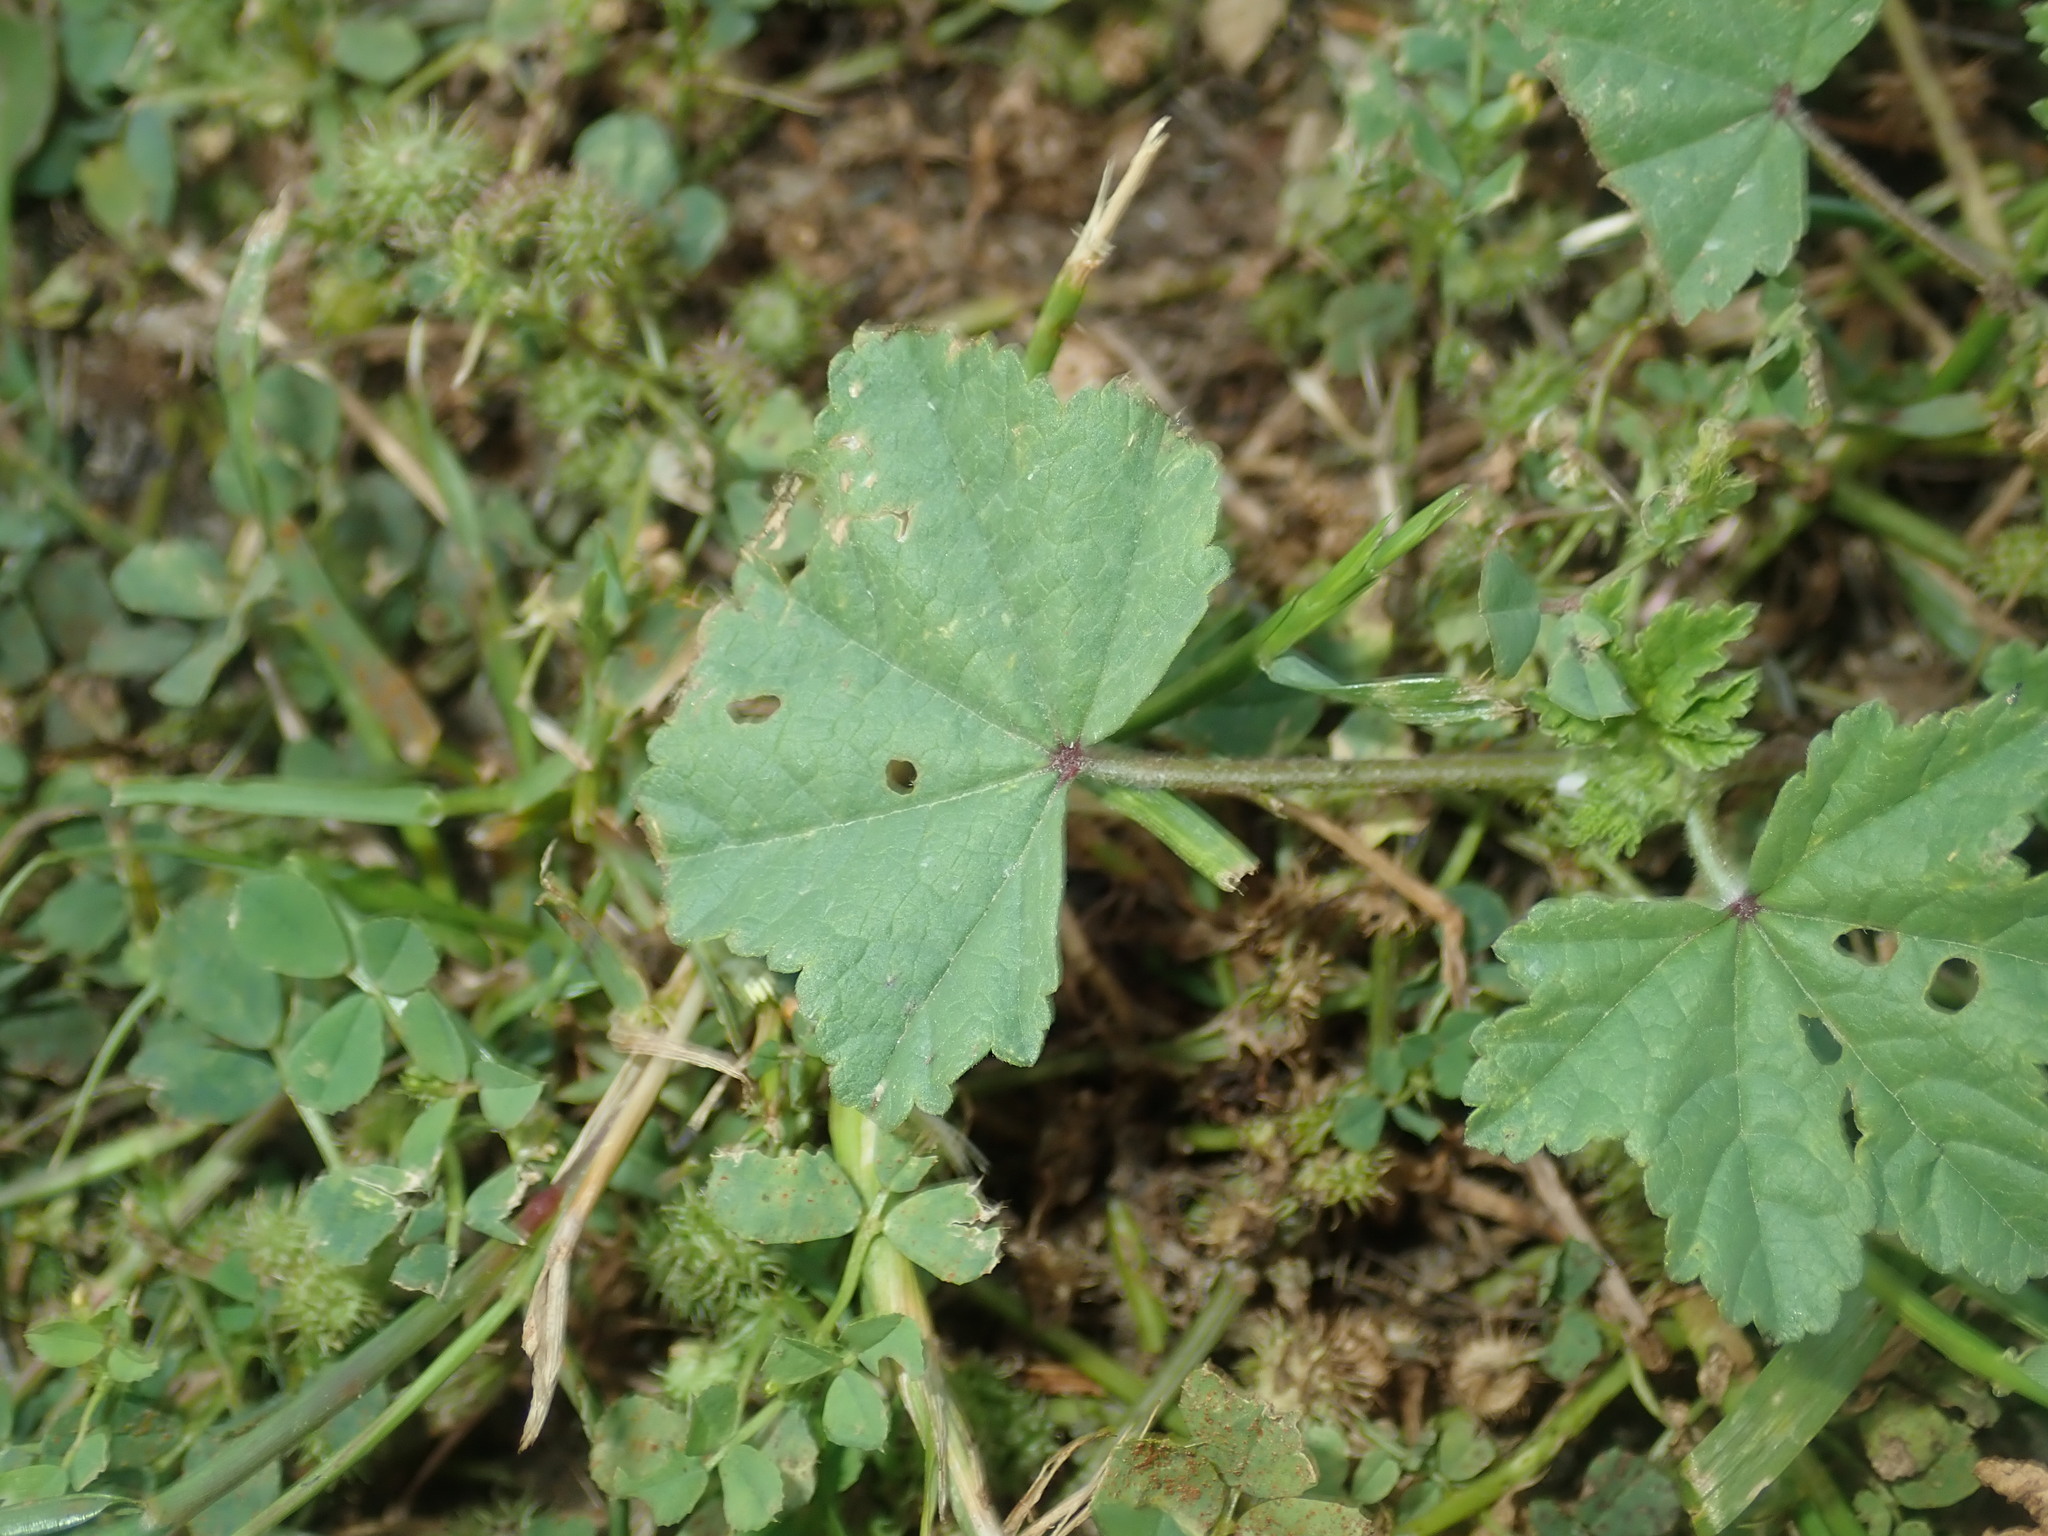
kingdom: Plantae
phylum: Tracheophyta
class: Magnoliopsida
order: Malvales
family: Malvaceae
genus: Malva
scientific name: Malva parviflora
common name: Least mallow
